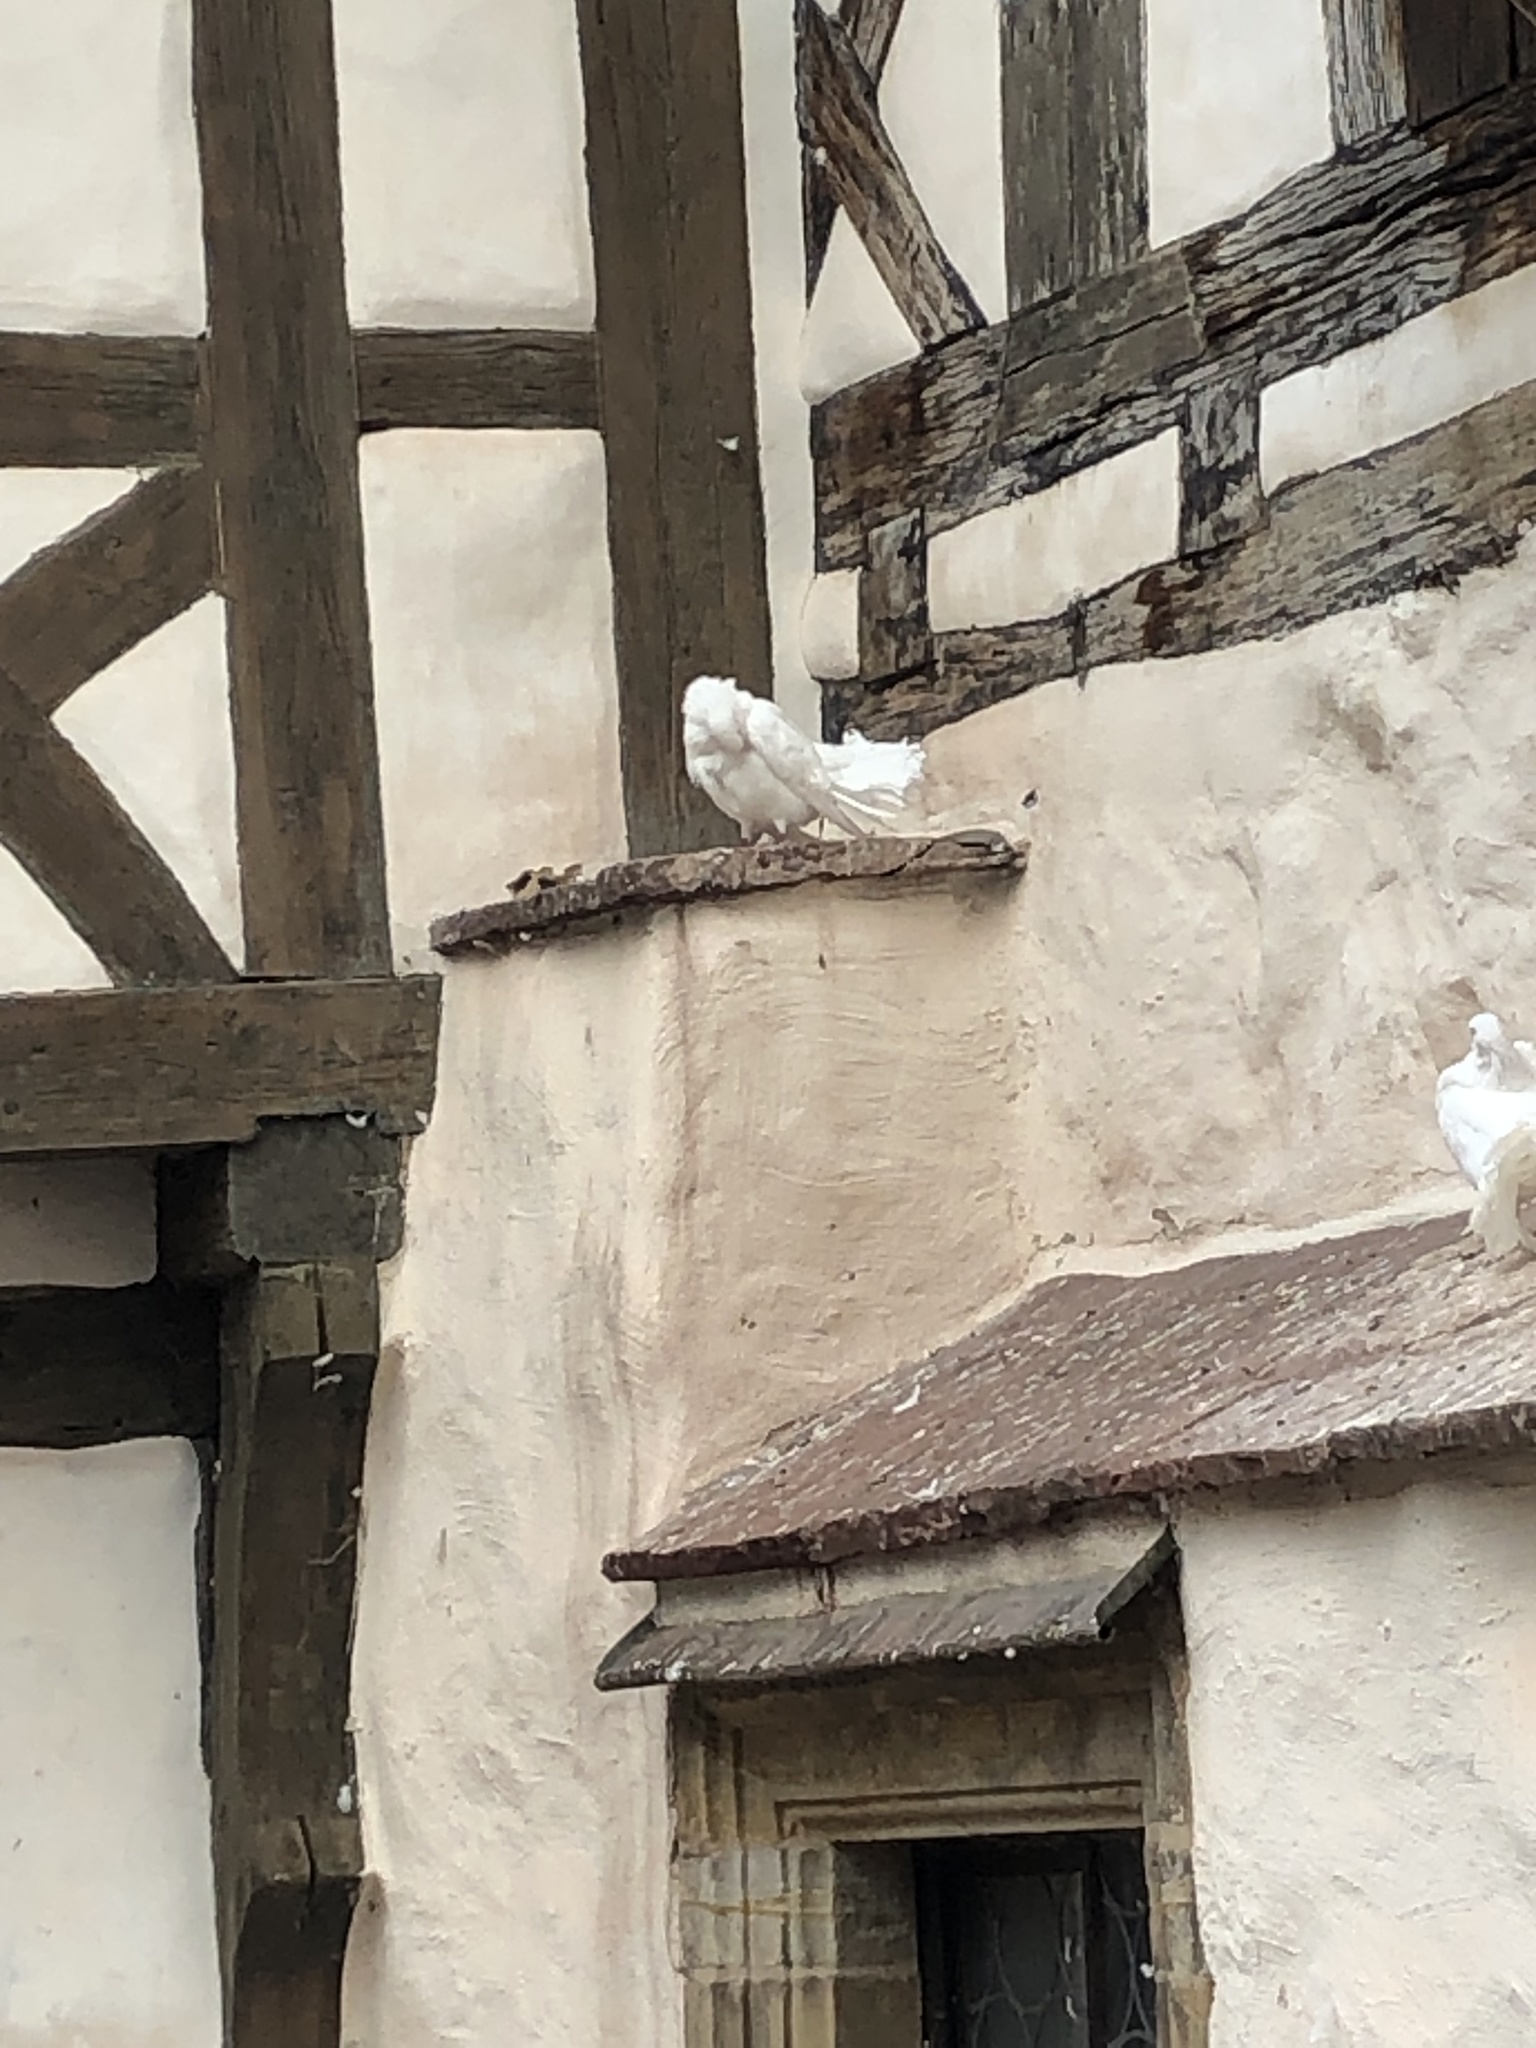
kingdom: Animalia
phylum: Chordata
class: Aves
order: Columbiformes
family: Columbidae
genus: Columba
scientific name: Columba livia
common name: Rock pigeon
